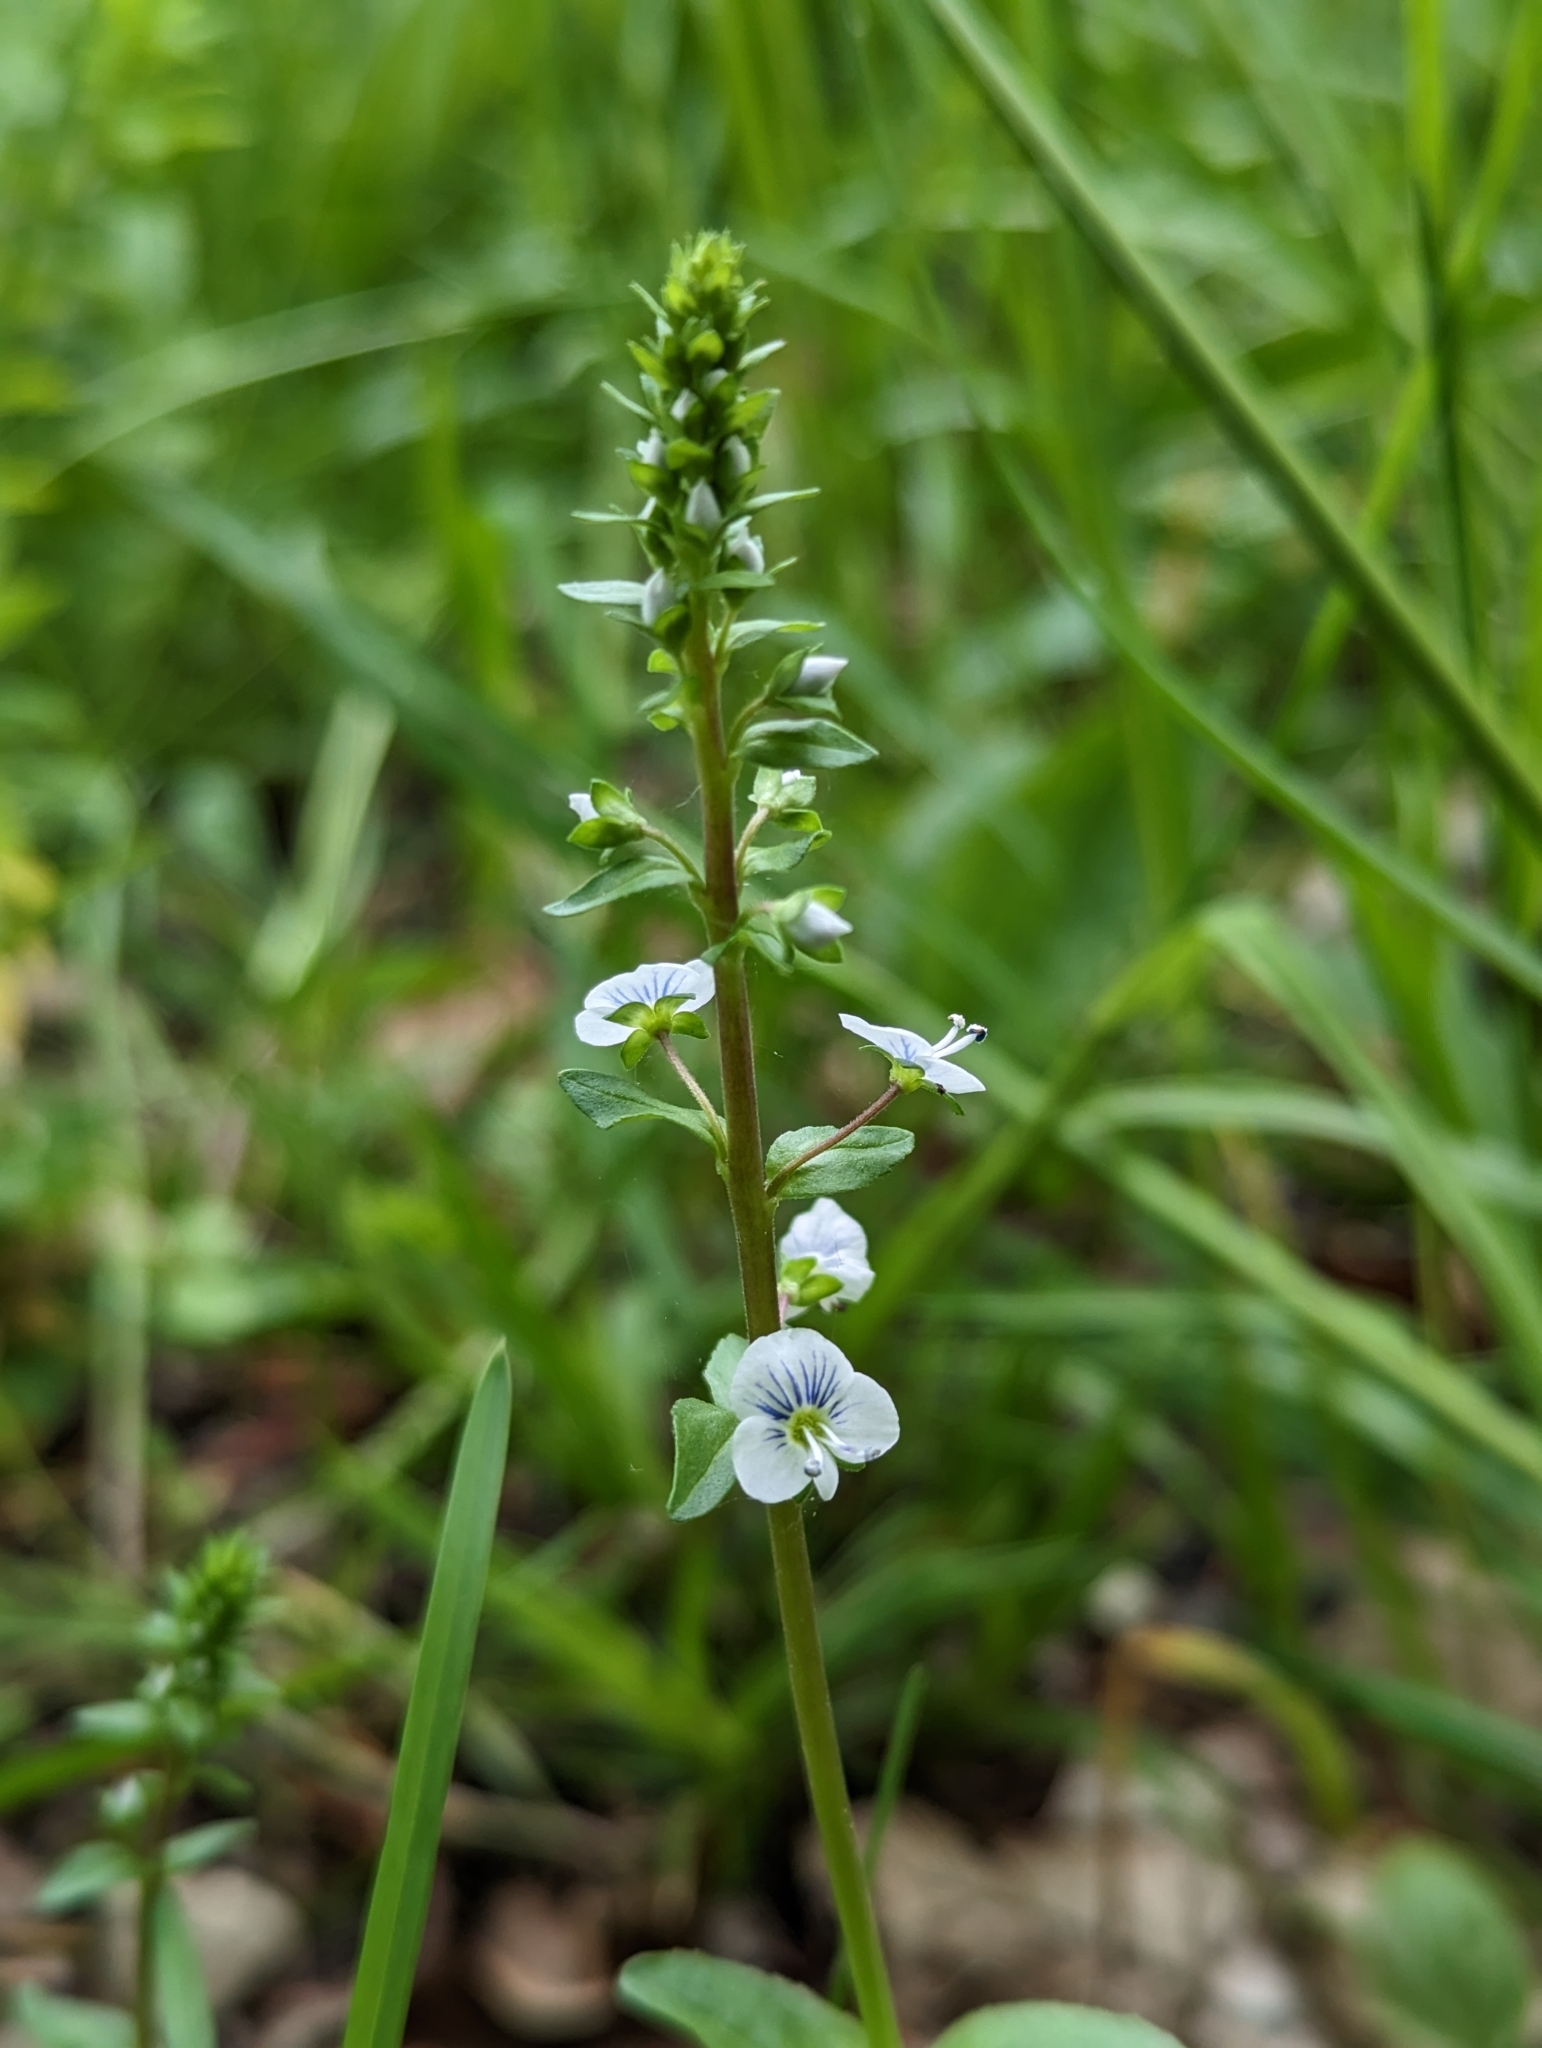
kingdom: Plantae
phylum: Tracheophyta
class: Magnoliopsida
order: Lamiales
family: Plantaginaceae
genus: Veronica
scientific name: Veronica serpyllifolia
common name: Thyme-leaved speedwell
